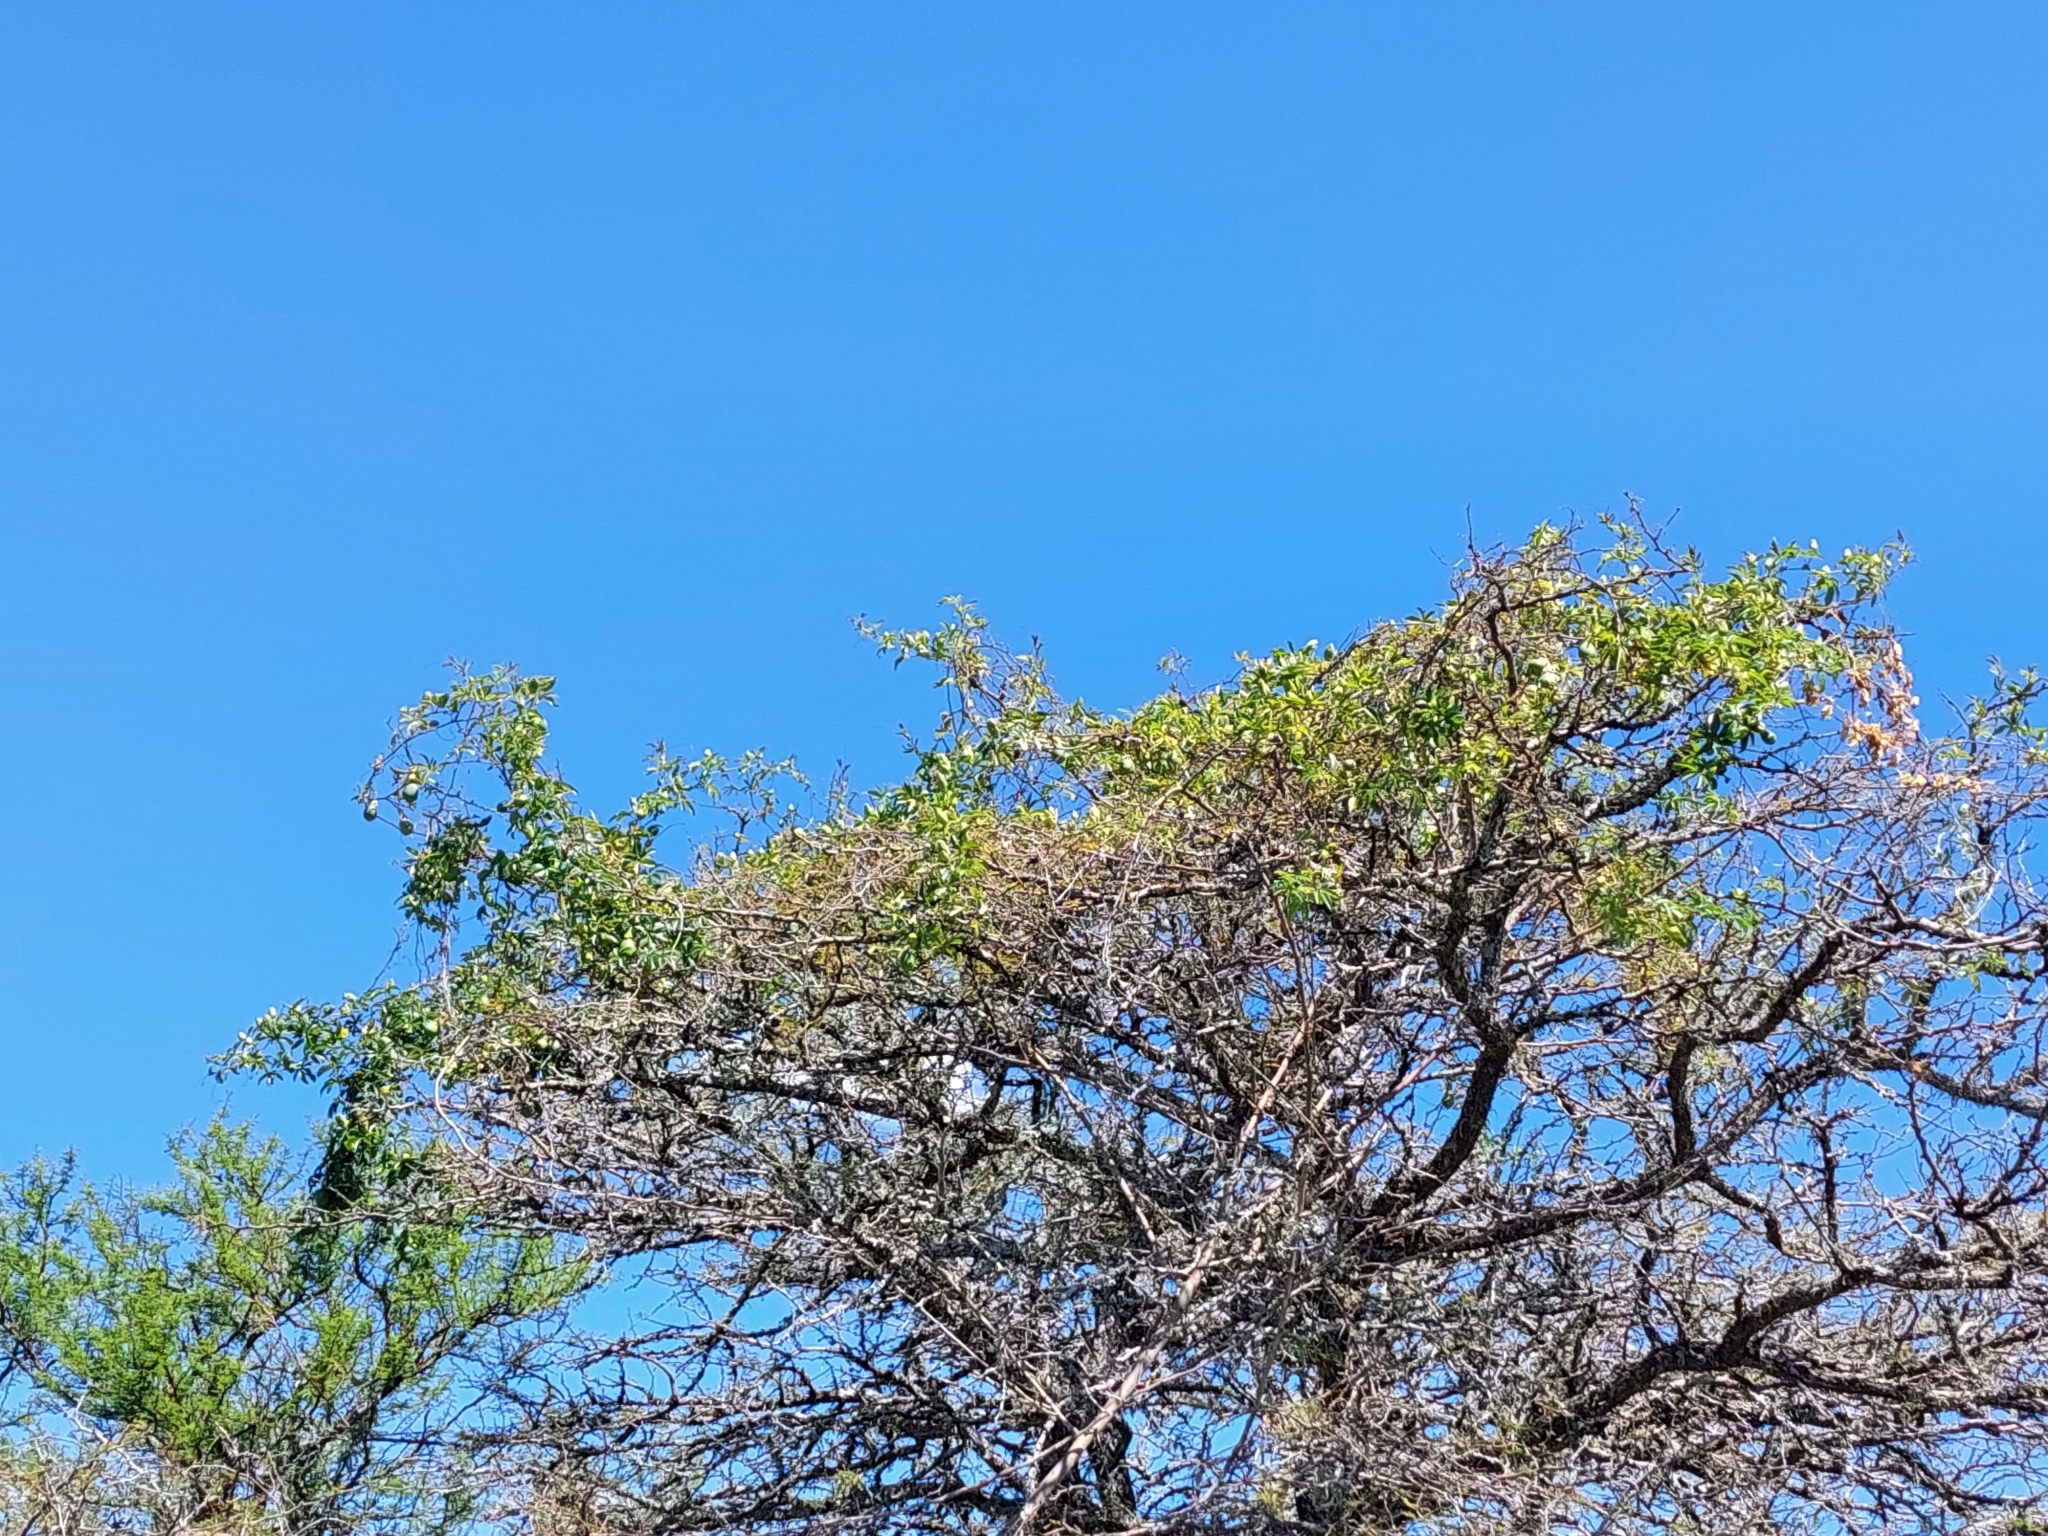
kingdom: Plantae
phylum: Tracheophyta
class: Magnoliopsida
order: Malpighiales
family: Passifloraceae
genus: Passiflora
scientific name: Passiflora caerulea
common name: Blue passionflower
